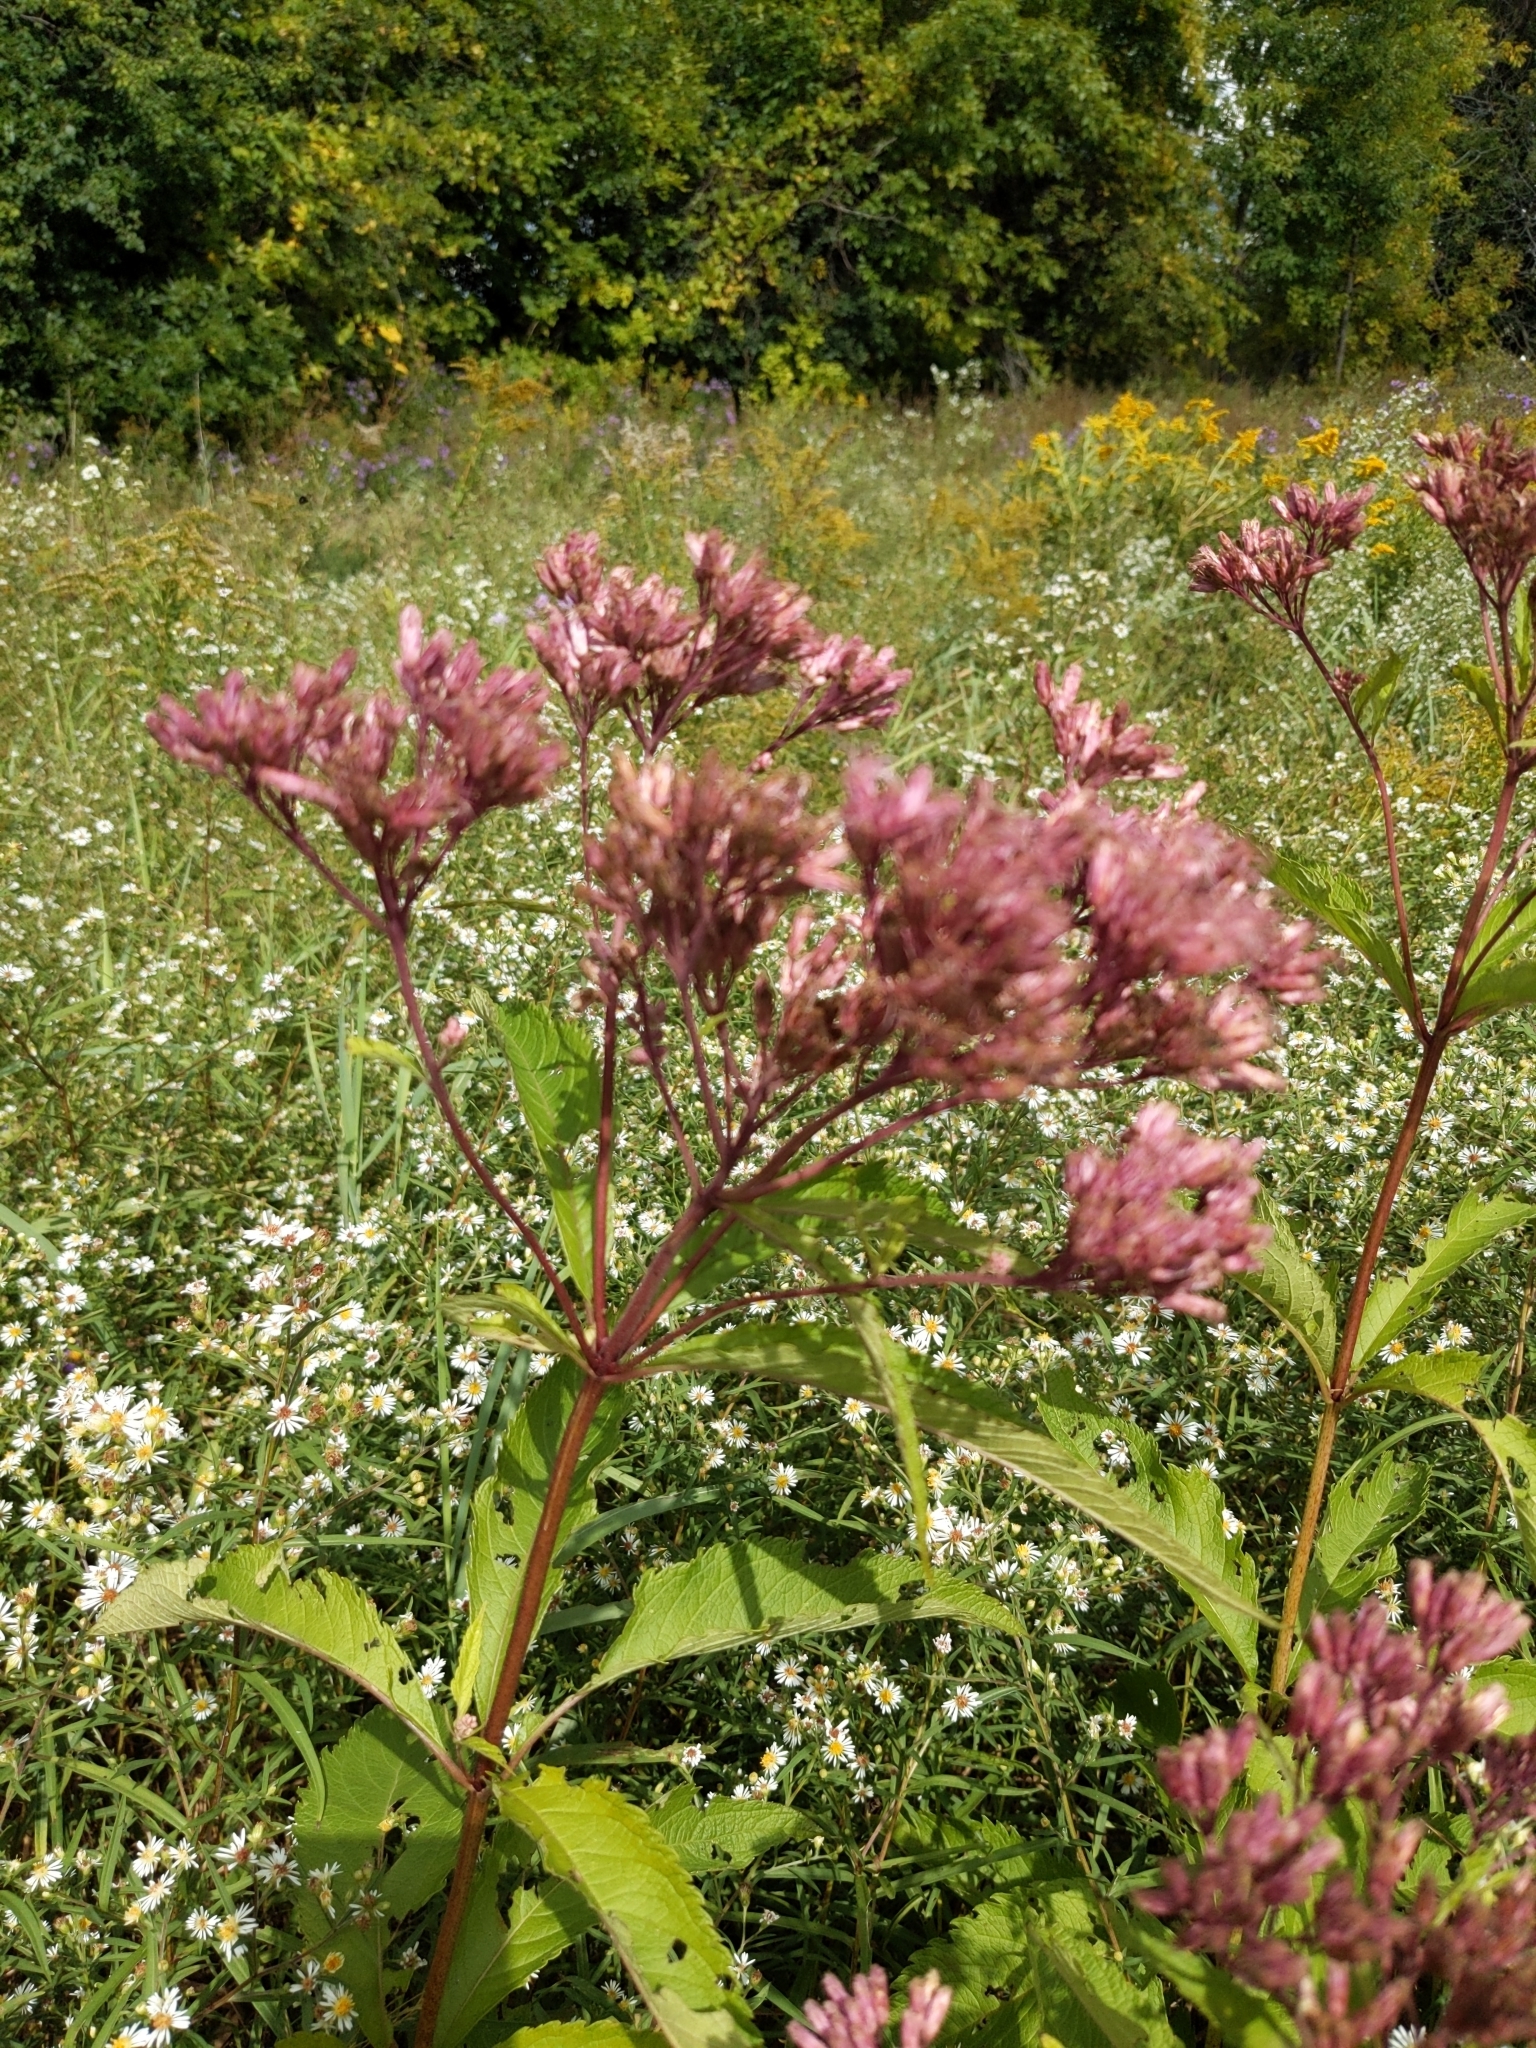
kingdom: Plantae
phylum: Tracheophyta
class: Magnoliopsida
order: Asterales
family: Asteraceae
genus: Eutrochium
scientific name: Eutrochium maculatum
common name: Spotted joe pye weed
